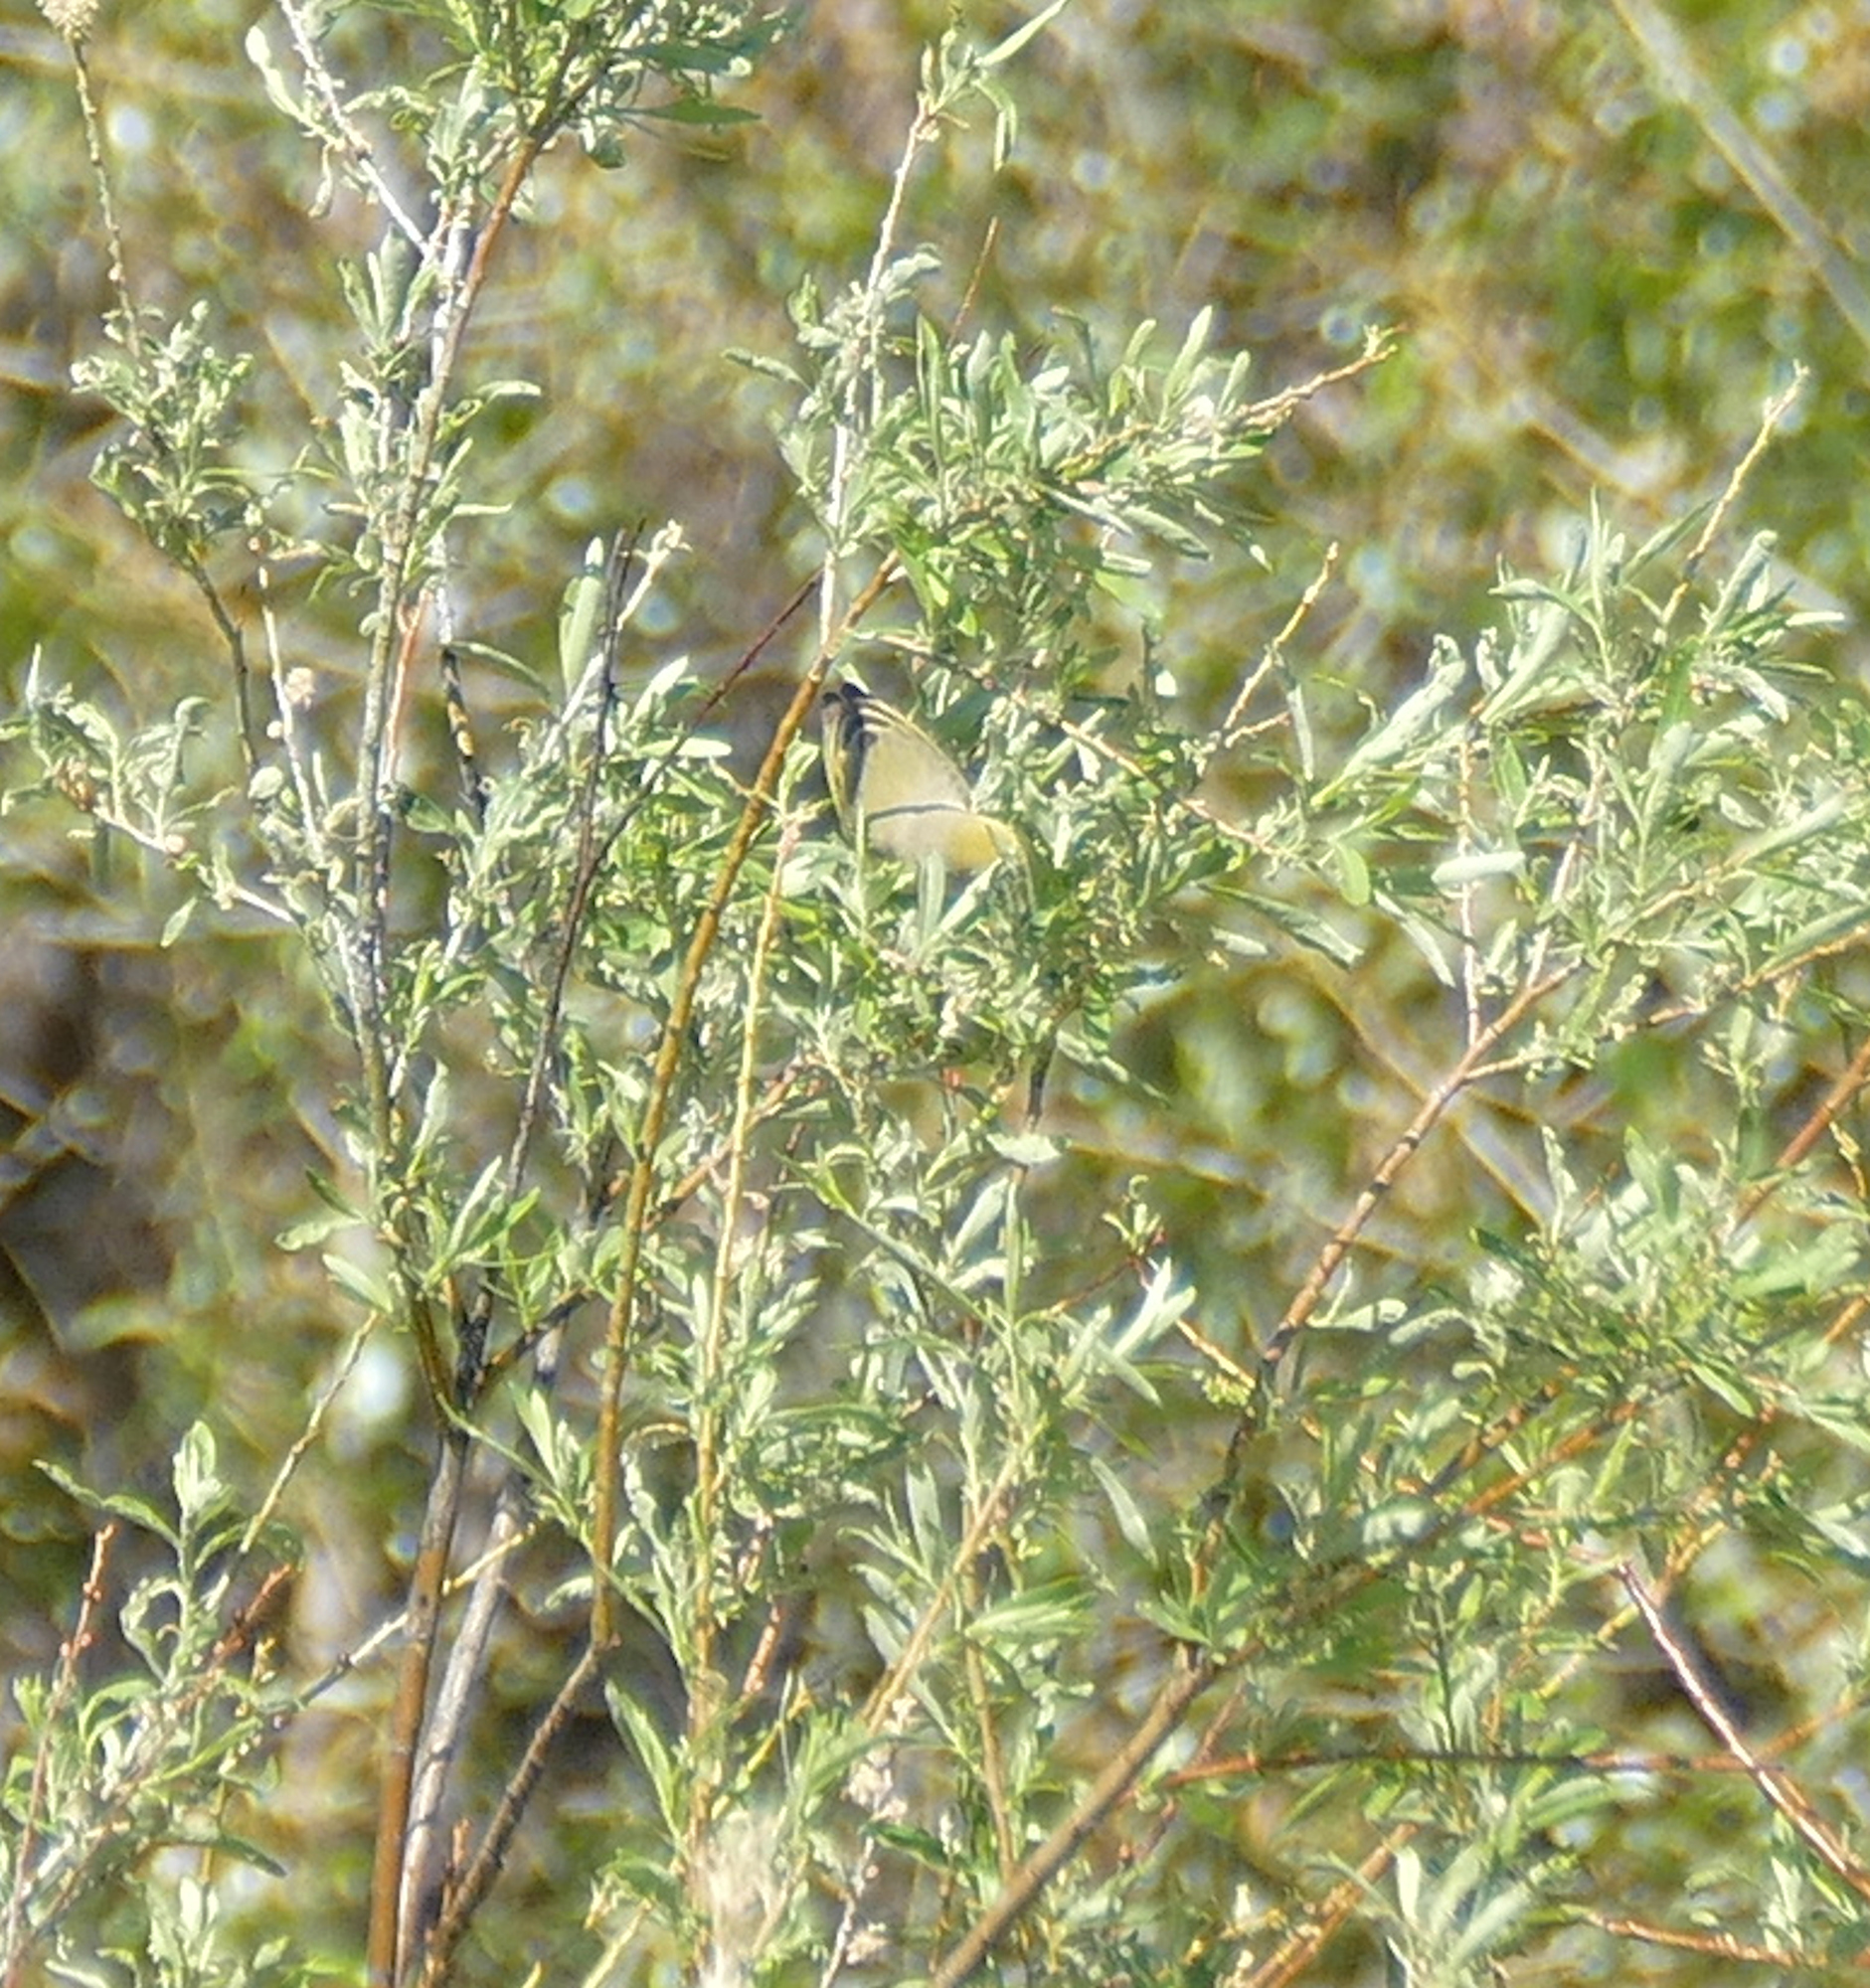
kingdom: Animalia
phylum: Chordata
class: Aves
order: Passeriformes
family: Parulidae
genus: Setophaga
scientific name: Setophaga petechia
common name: Yellow warbler
